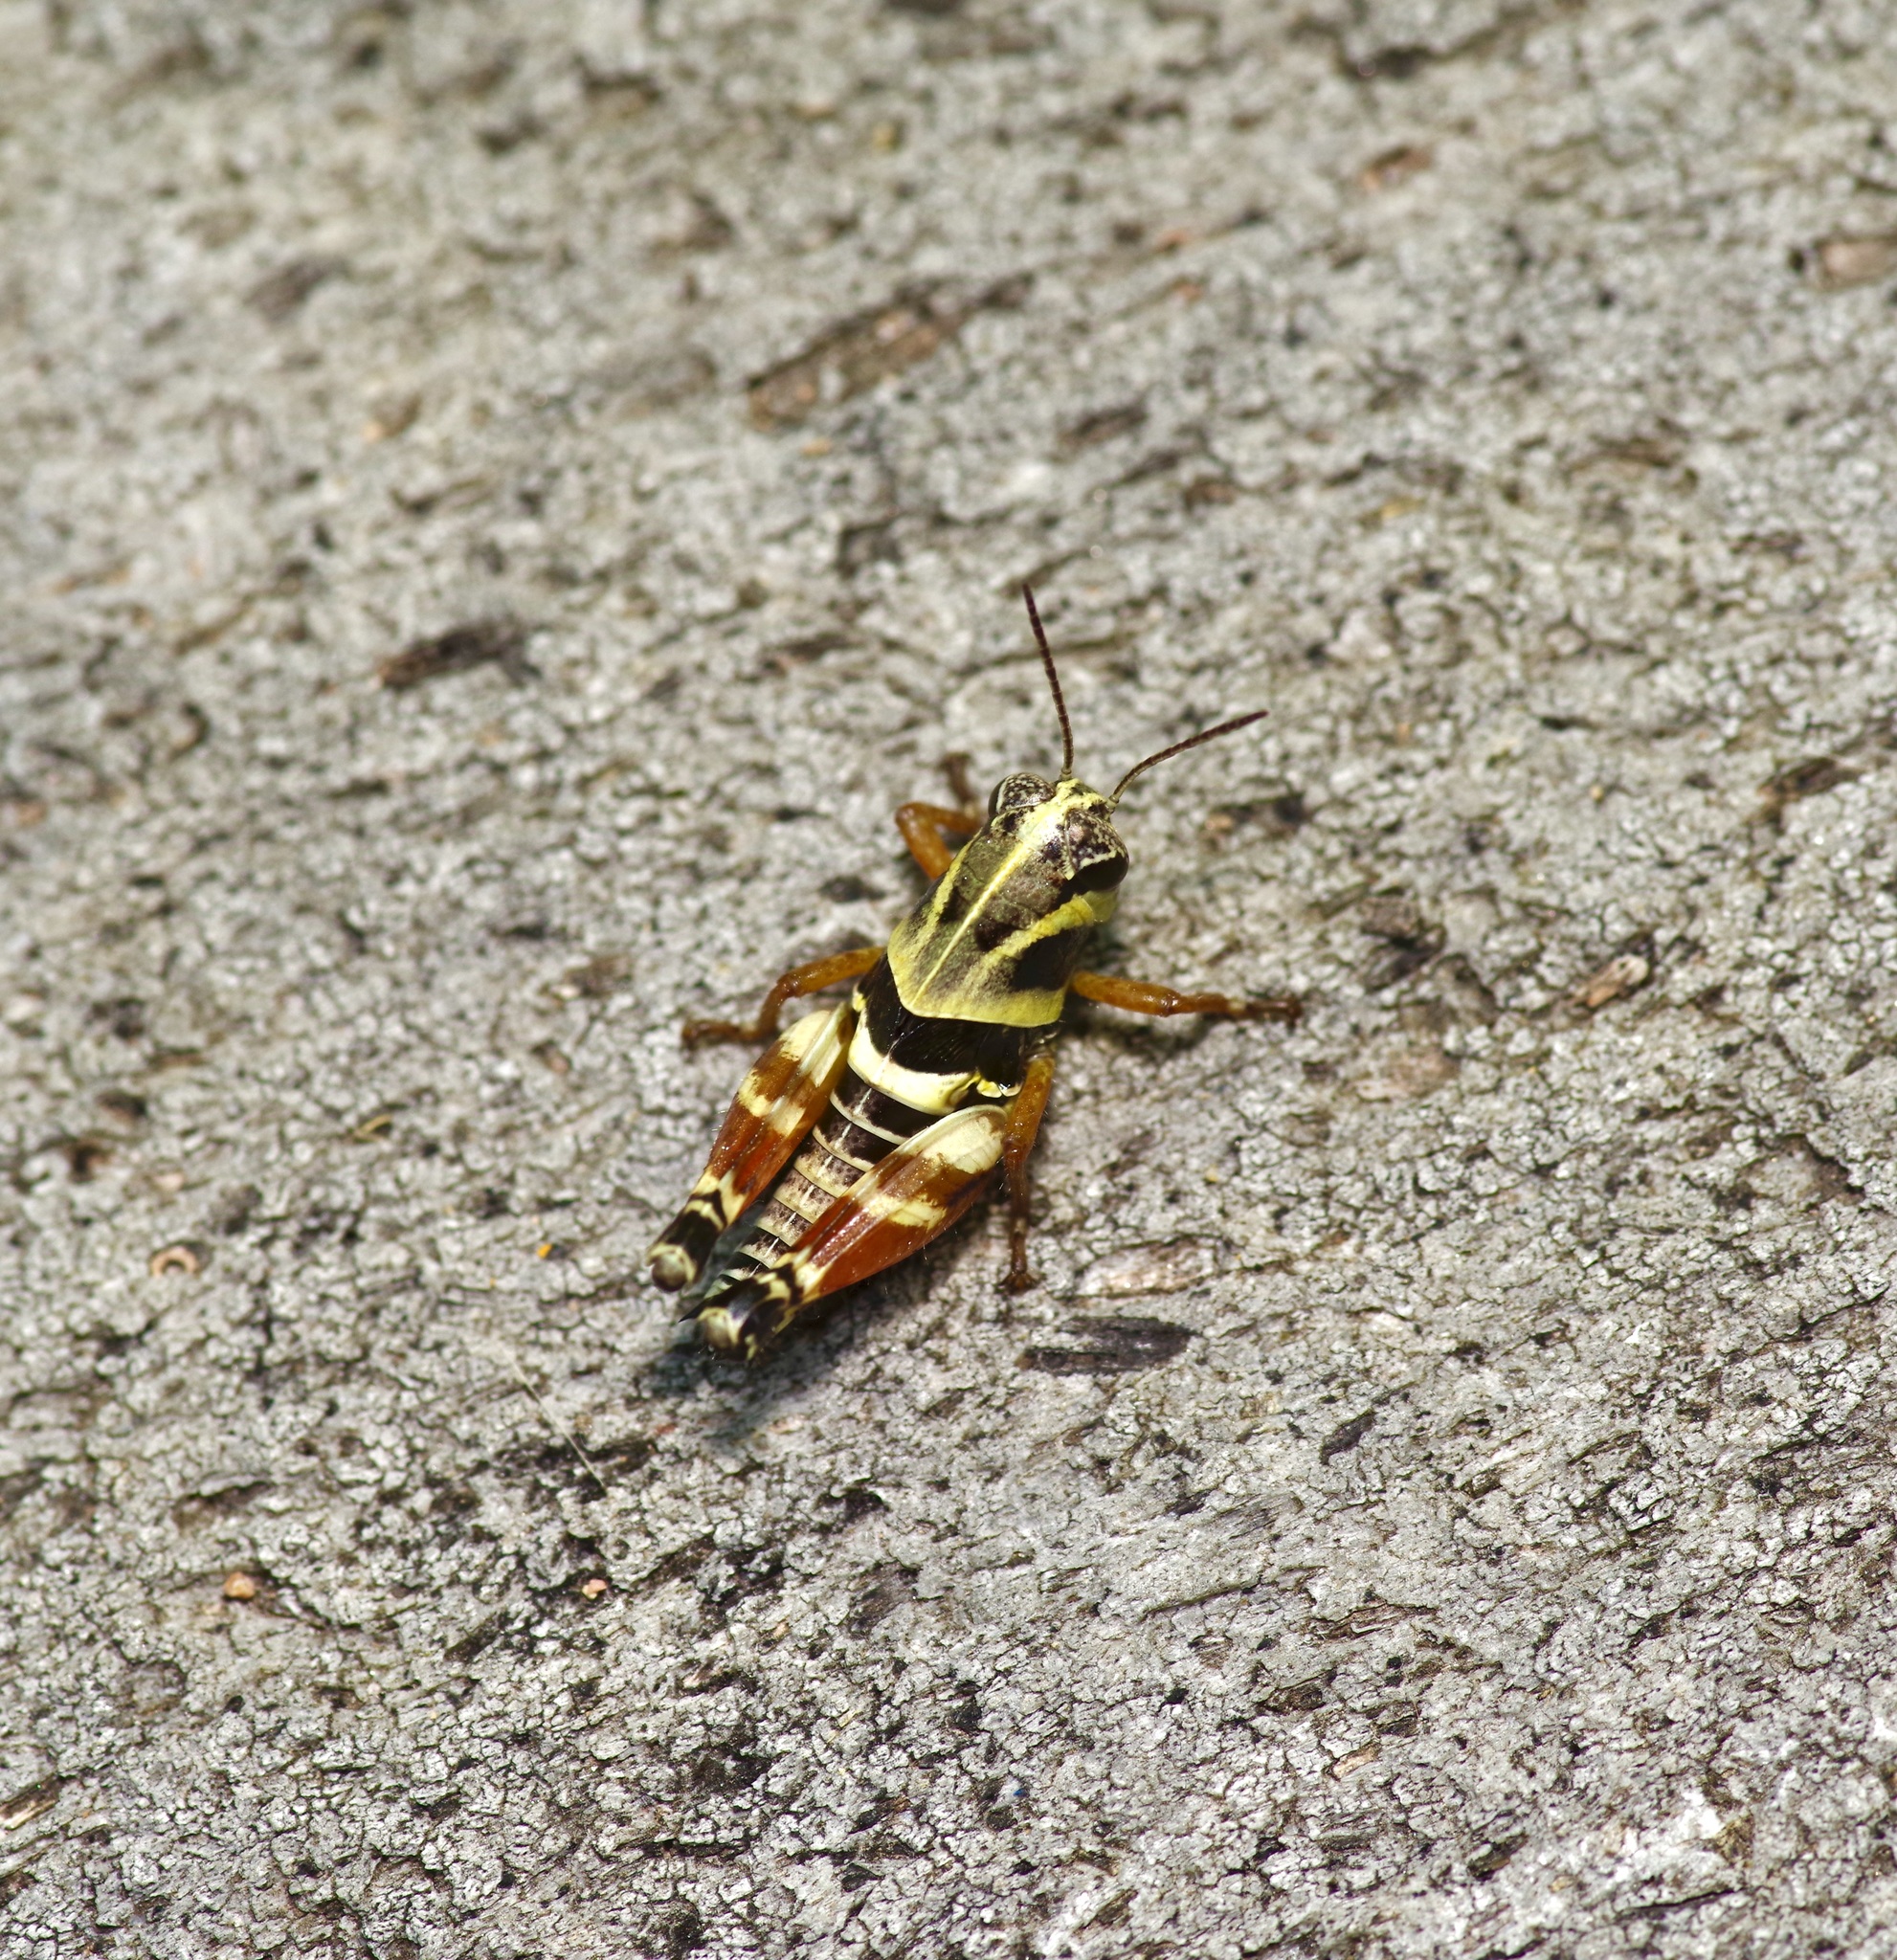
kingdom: Animalia
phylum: Arthropoda
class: Insecta
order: Orthoptera
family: Acrididae
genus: Aidemona
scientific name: Aidemona azteca
